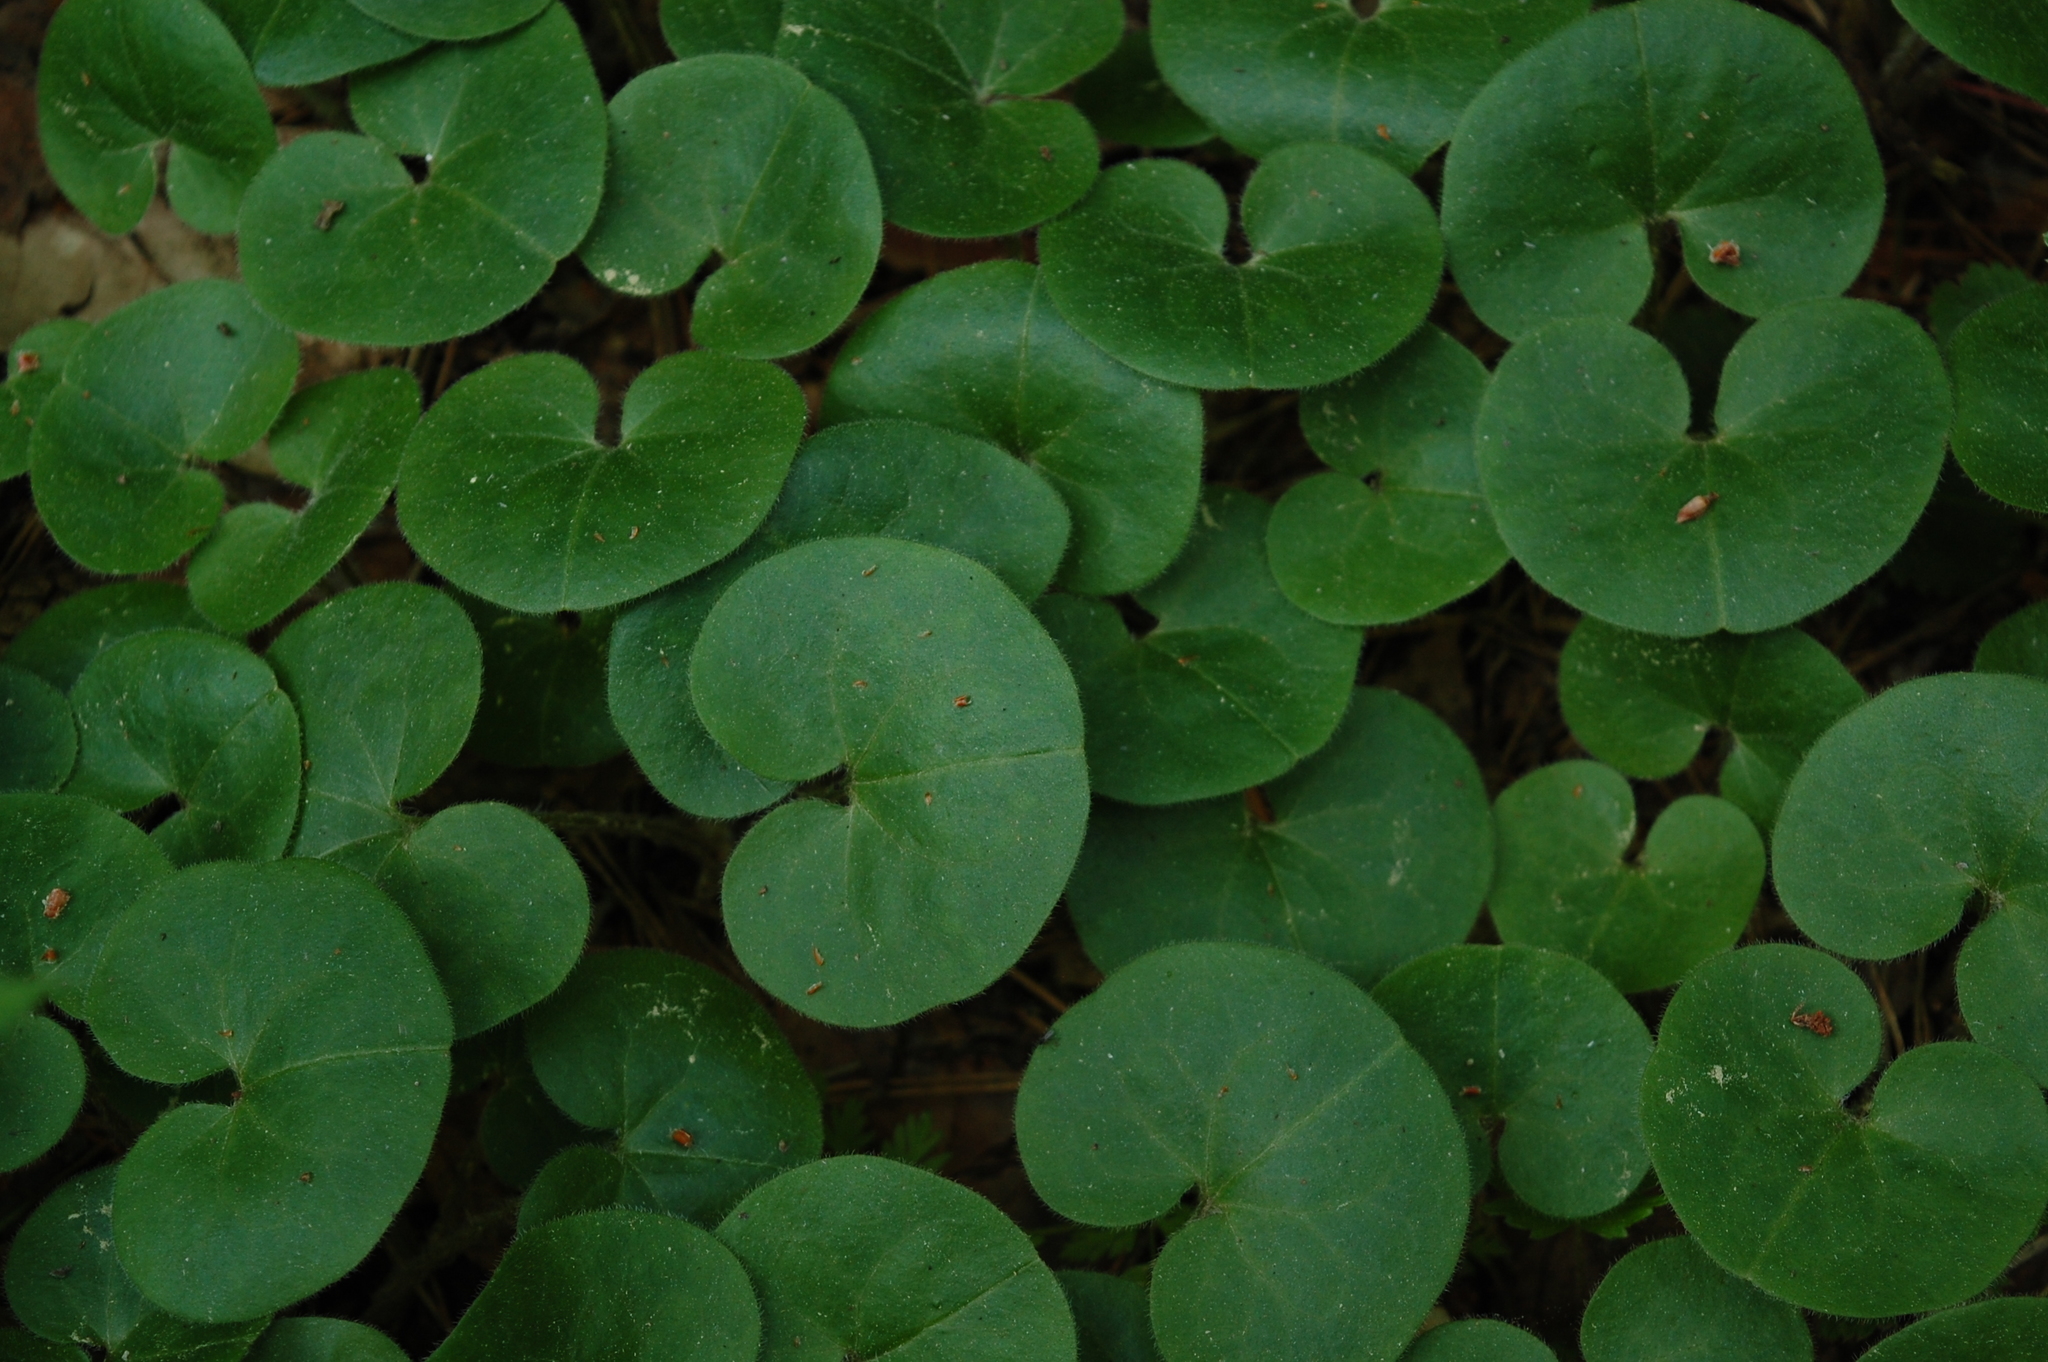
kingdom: Plantae
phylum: Tracheophyta
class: Magnoliopsida
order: Piperales
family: Aristolochiaceae
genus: Asarum
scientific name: Asarum europaeum
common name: Asarabacca
